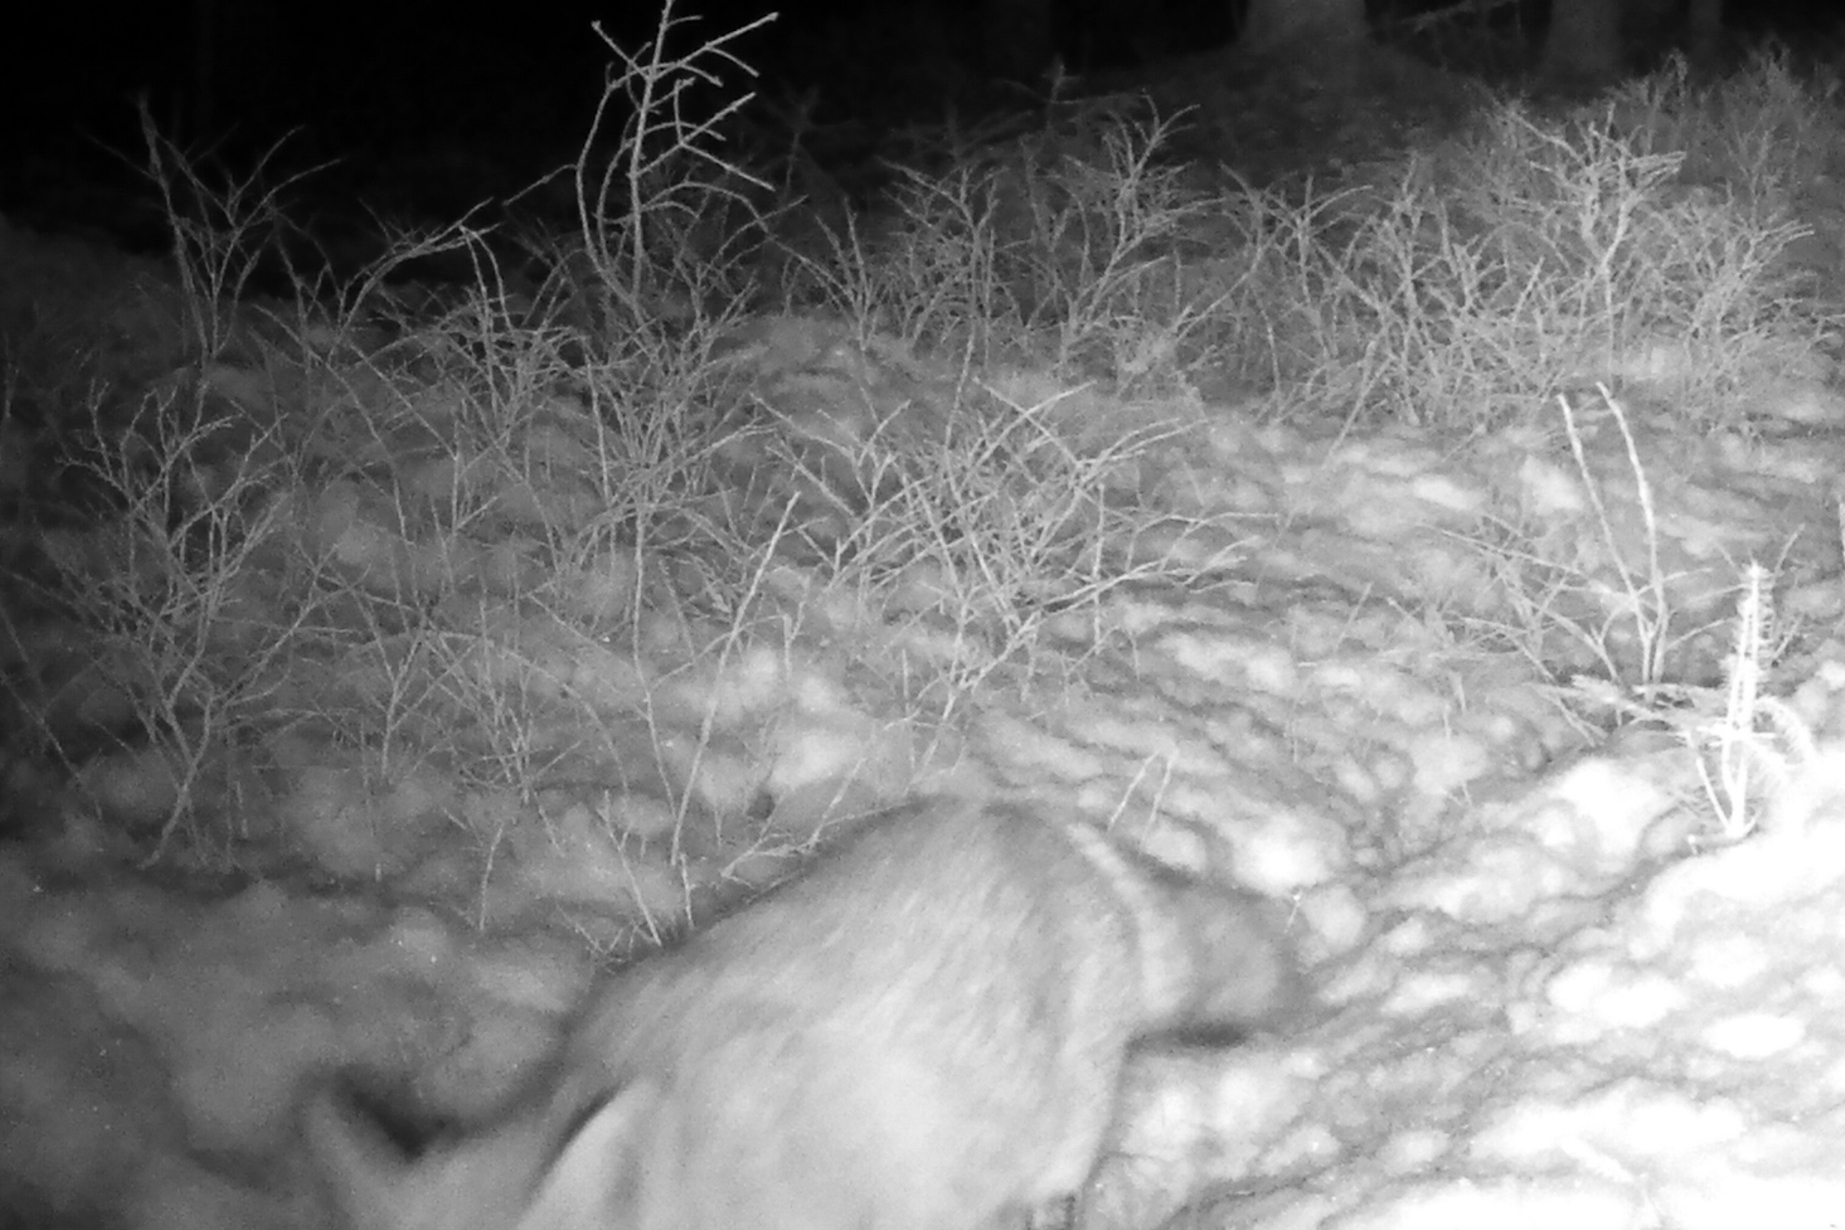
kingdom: Animalia
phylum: Chordata
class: Mammalia
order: Carnivora
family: Canidae
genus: Vulpes
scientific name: Vulpes vulpes
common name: Red fox
